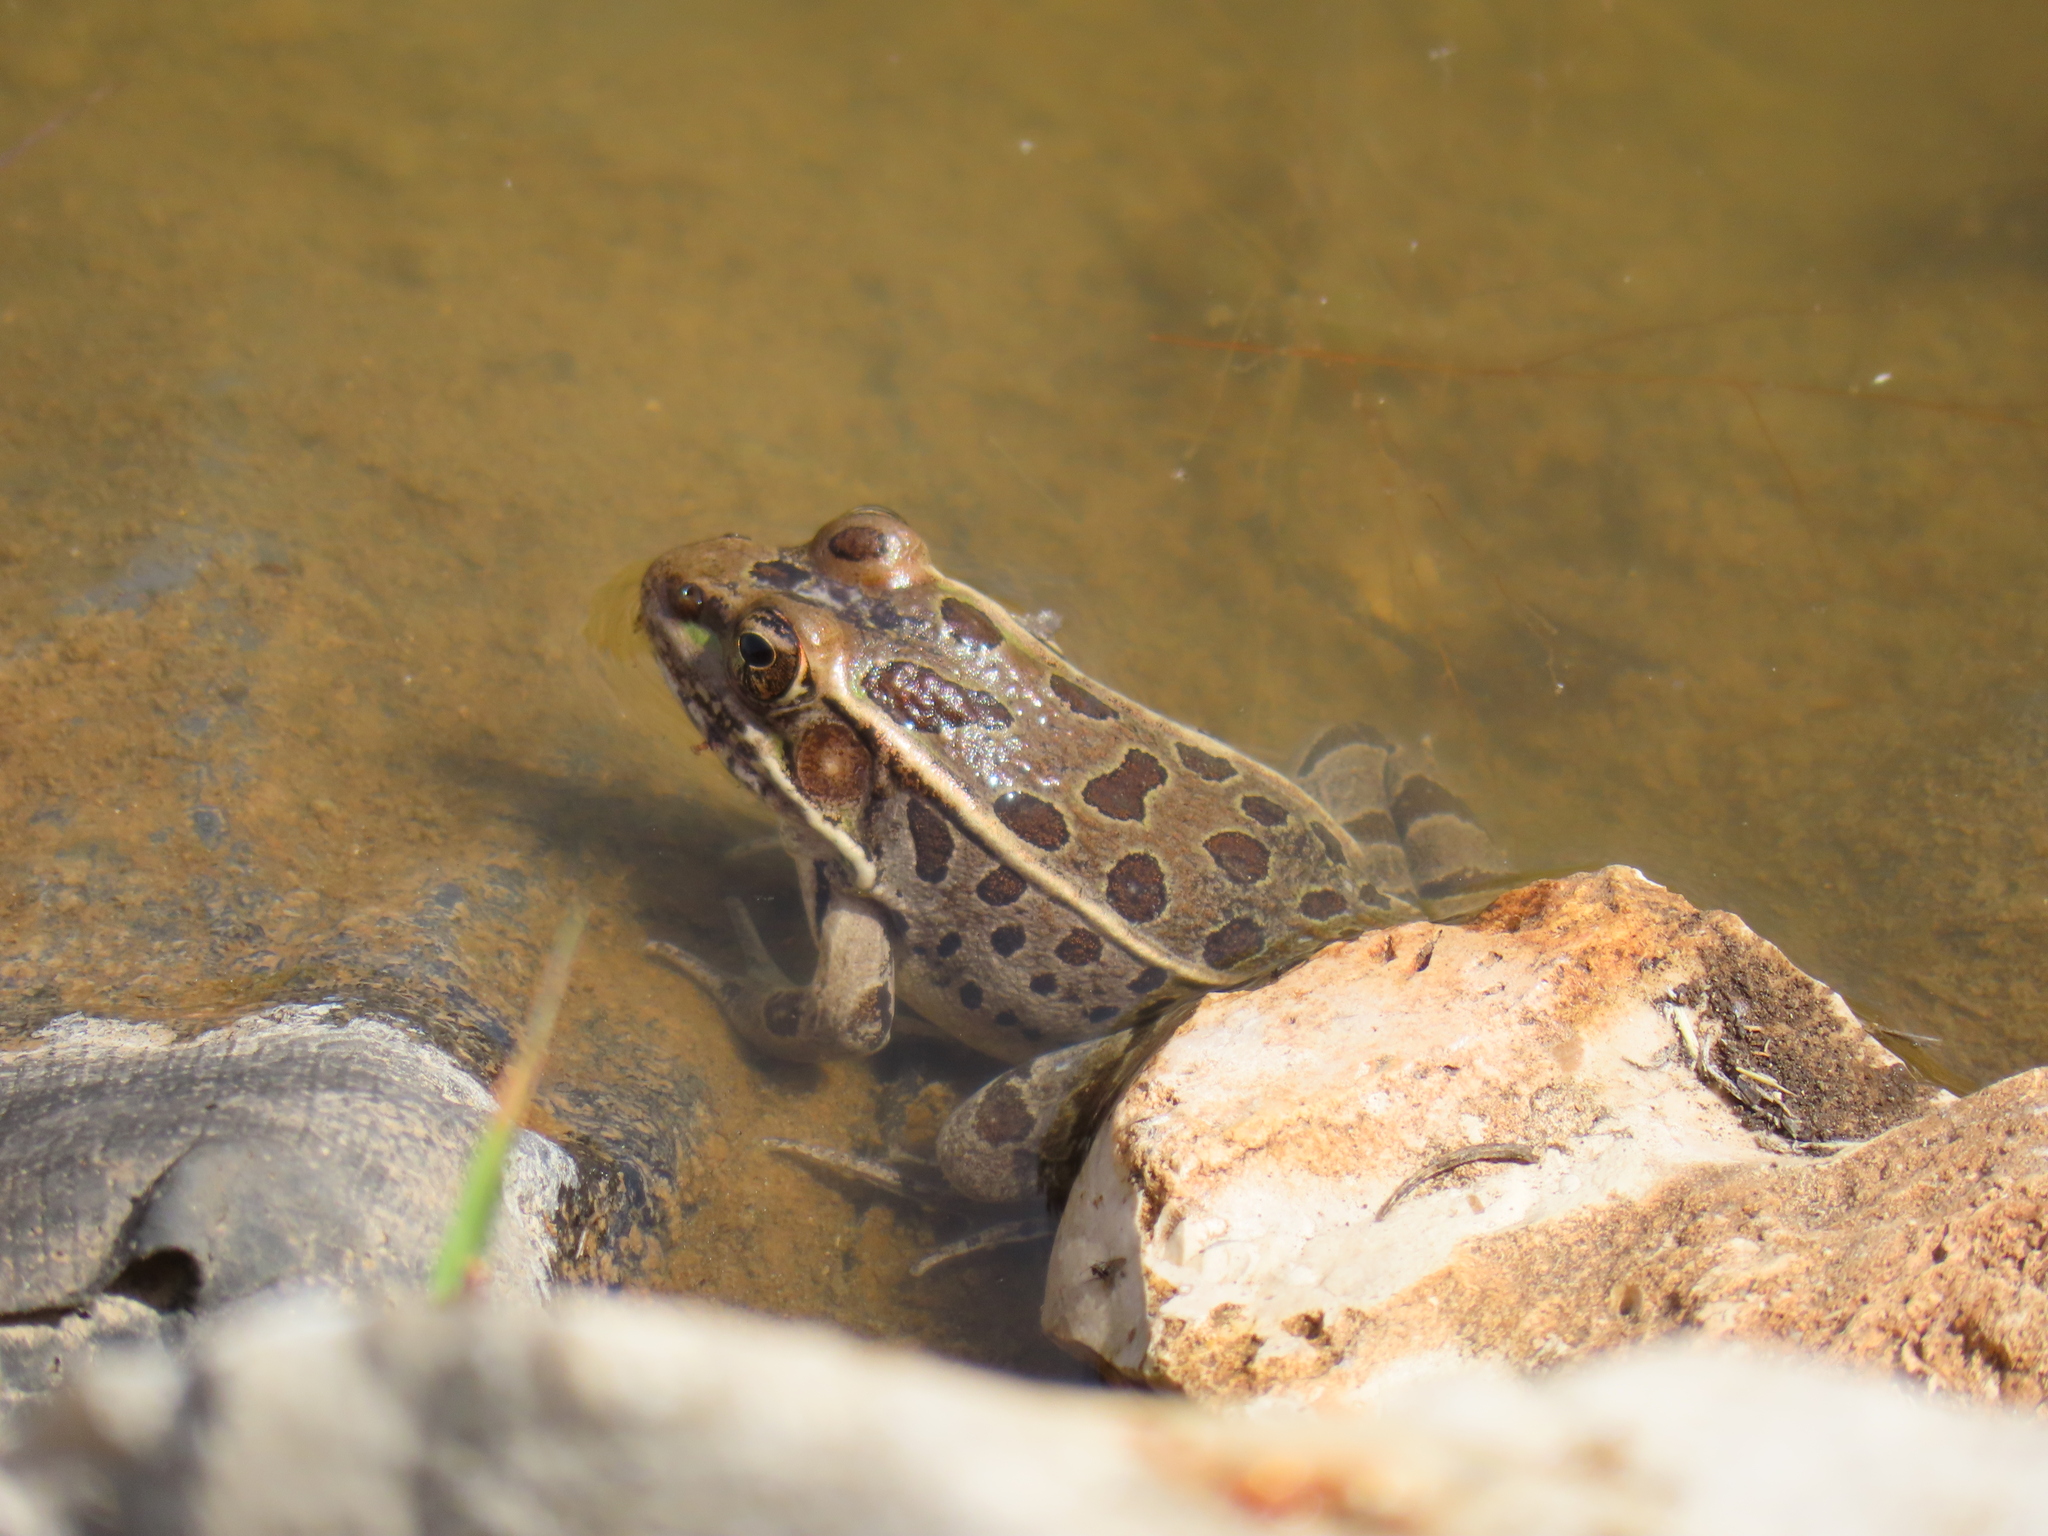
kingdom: Animalia
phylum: Chordata
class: Amphibia
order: Anura
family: Ranidae
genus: Lithobates
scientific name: Lithobates berlandieri
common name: Rio grande leopard frog
